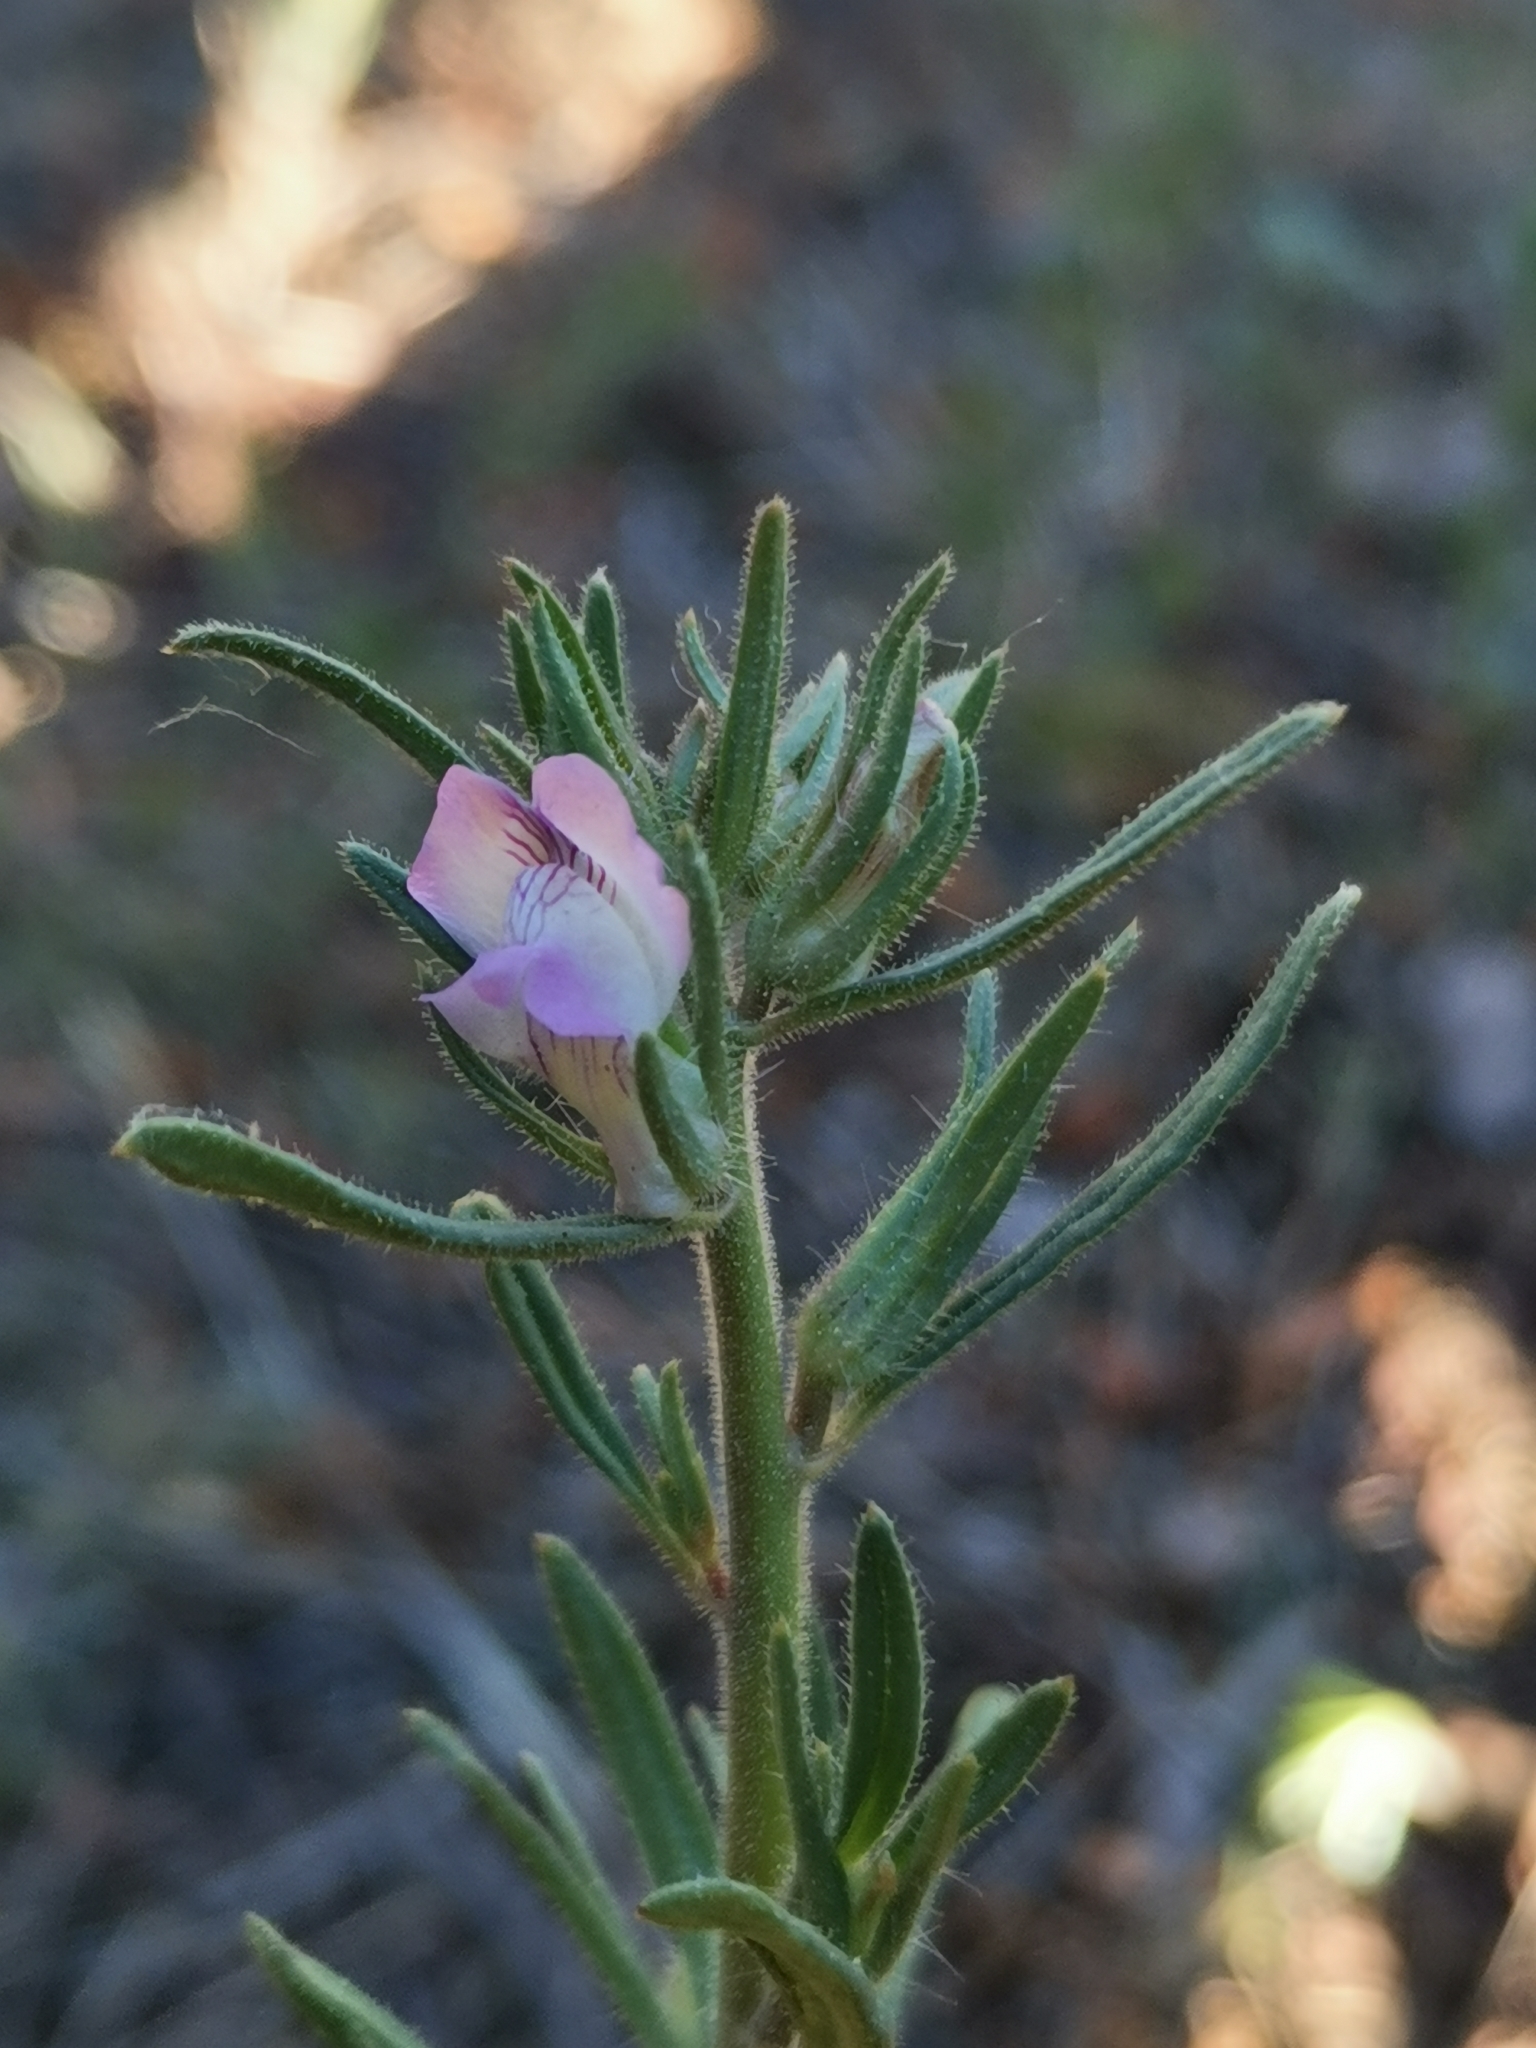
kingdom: Plantae
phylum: Tracheophyta
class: Magnoliopsida
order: Lamiales
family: Plantaginaceae
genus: Misopates
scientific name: Misopates orontium
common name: Weasel's-snout
